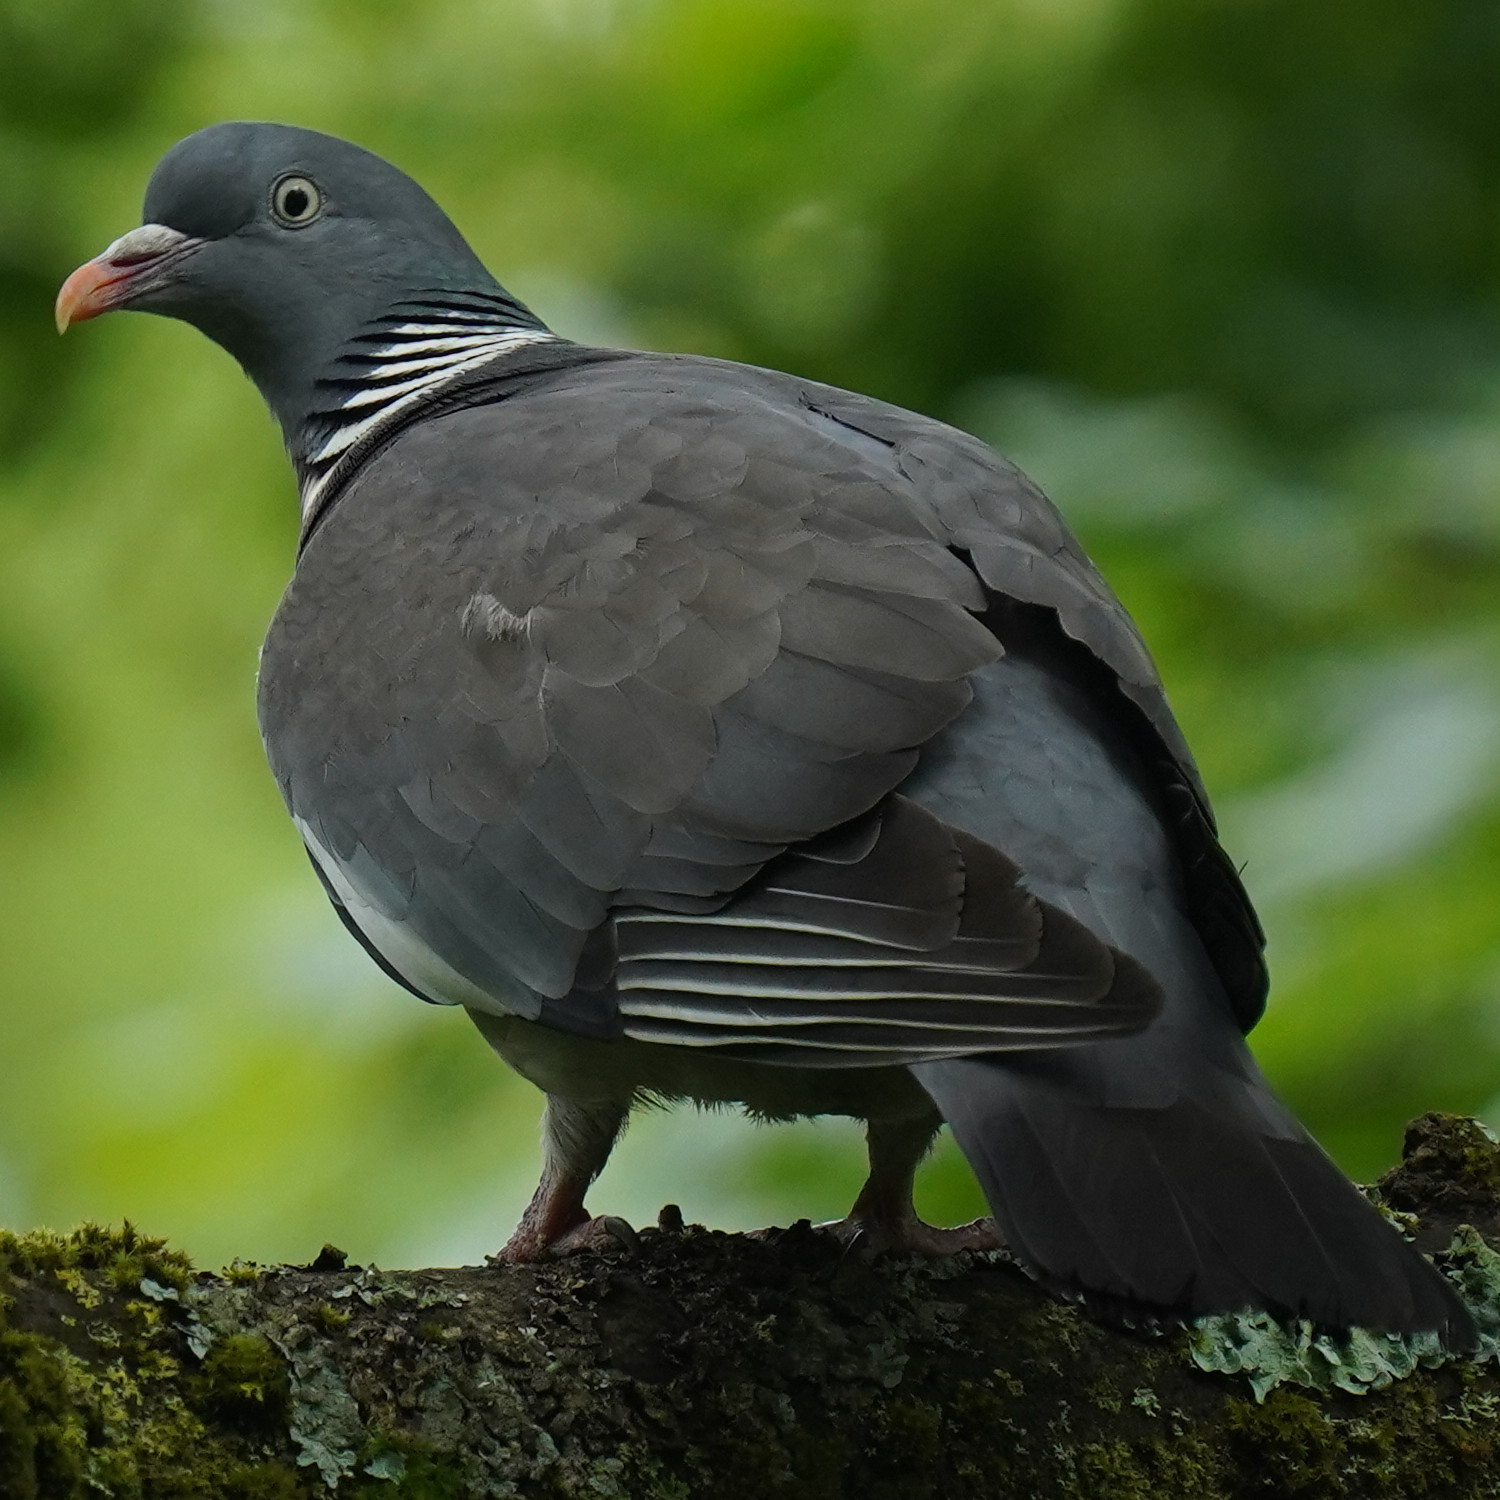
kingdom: Animalia
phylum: Chordata
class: Aves
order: Columbiformes
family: Columbidae
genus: Columba
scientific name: Columba palumbus
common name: Common wood pigeon
